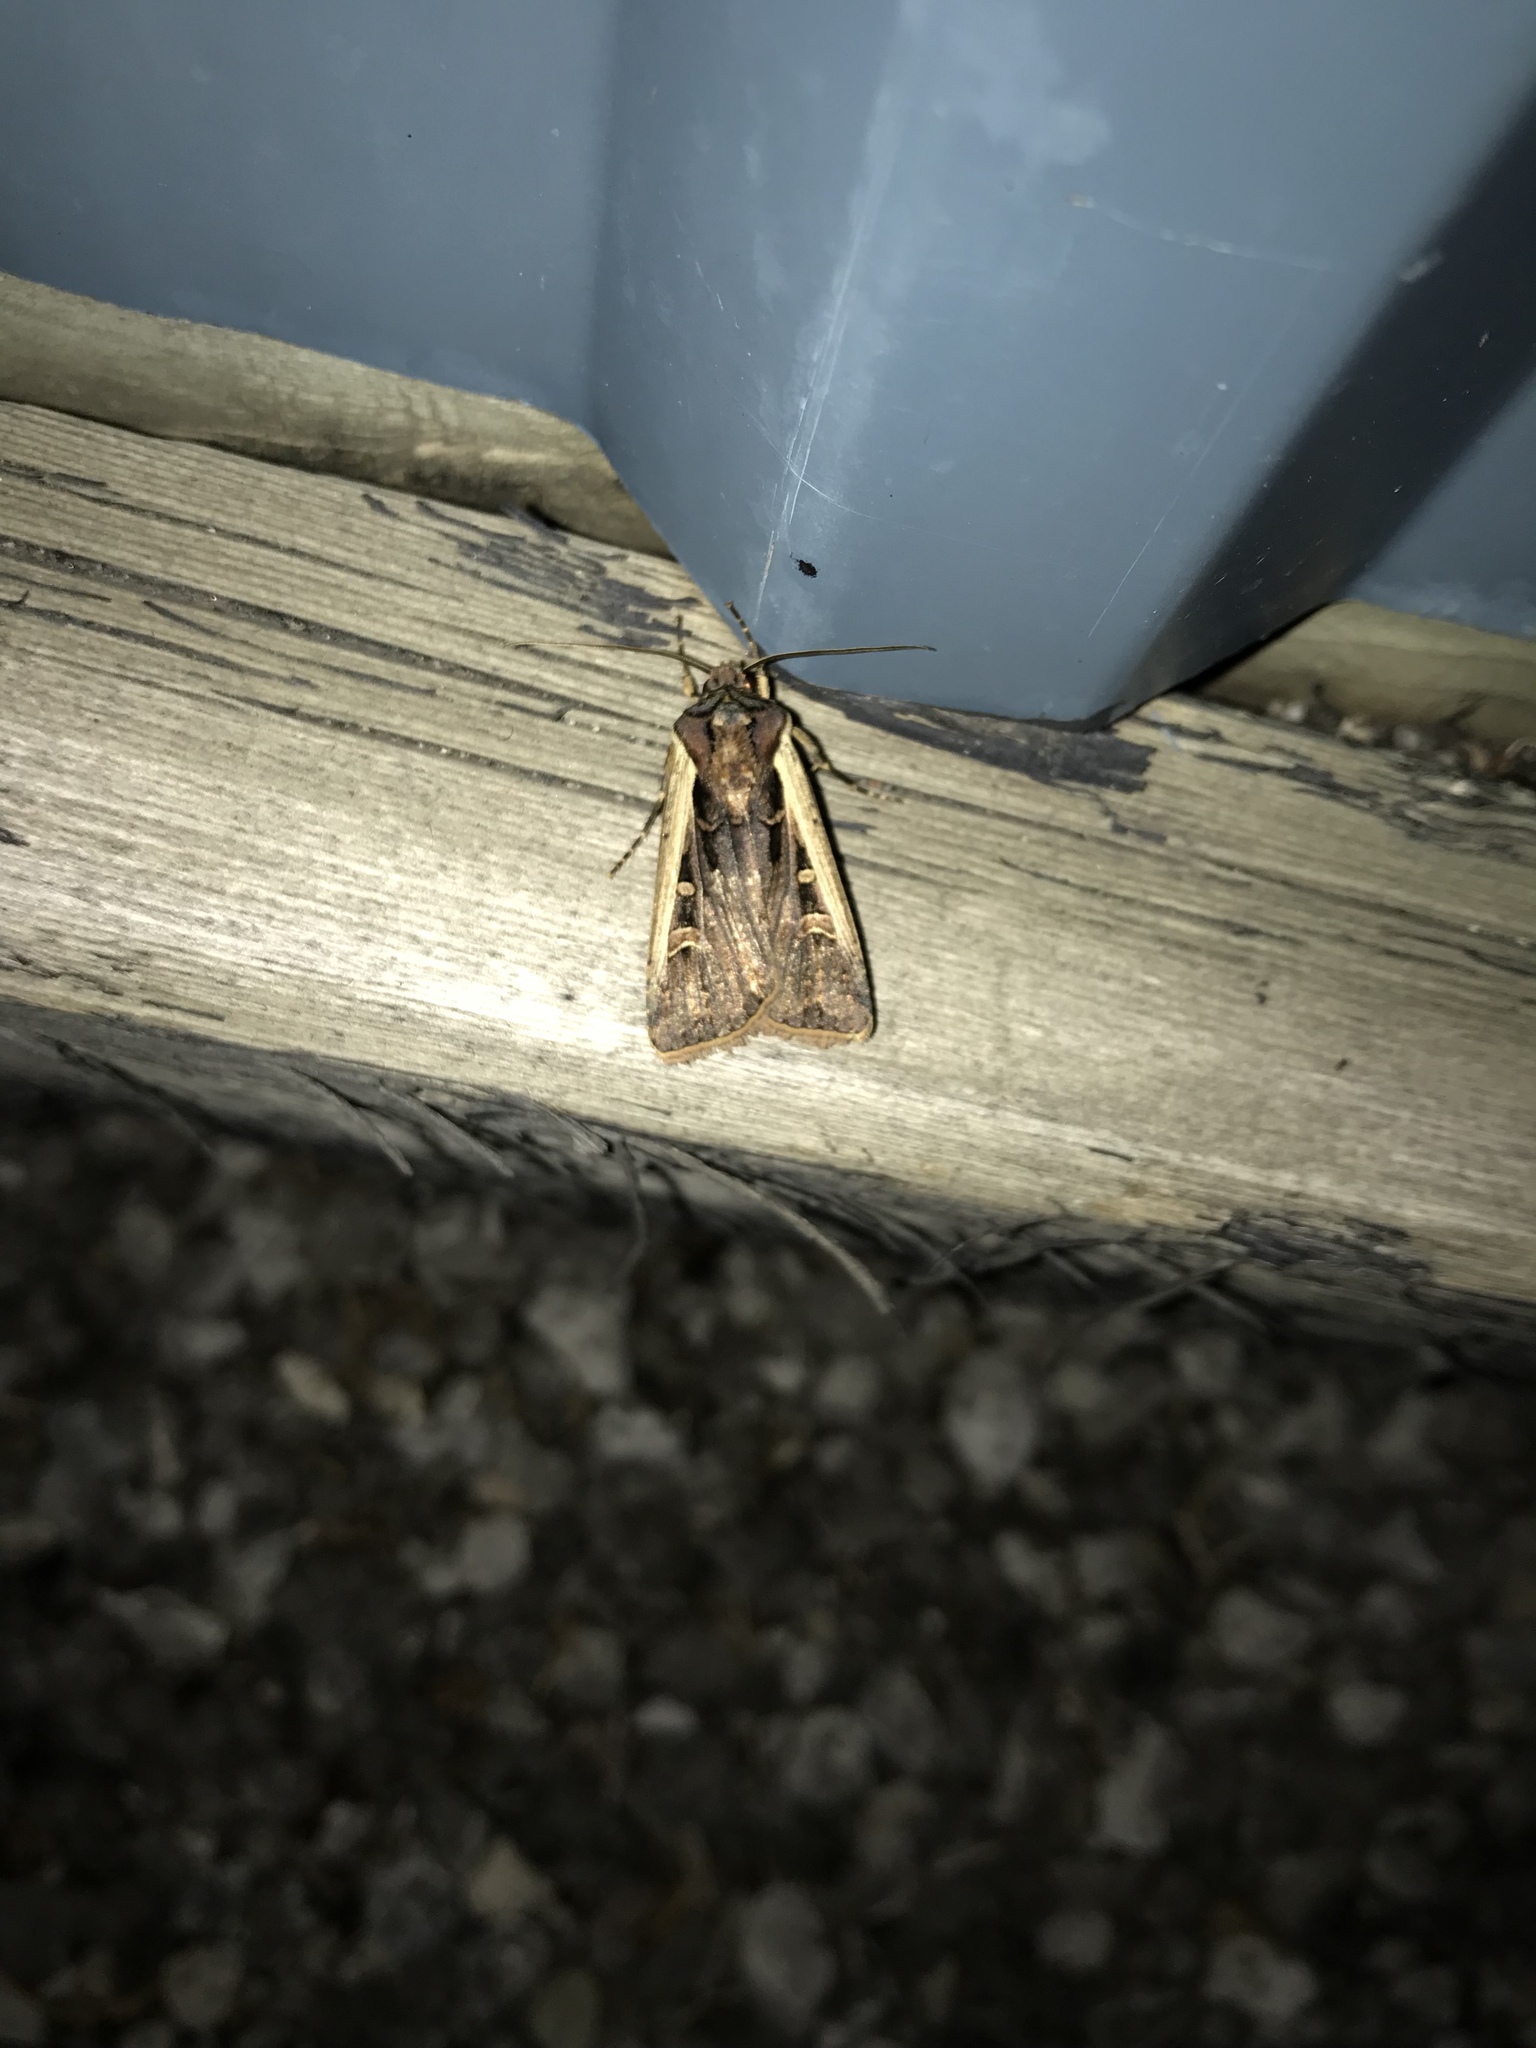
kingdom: Animalia
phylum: Arthropoda
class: Insecta
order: Lepidoptera
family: Noctuidae
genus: Striacosta
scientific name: Striacosta albicosta
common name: Western bean cutworm moth
